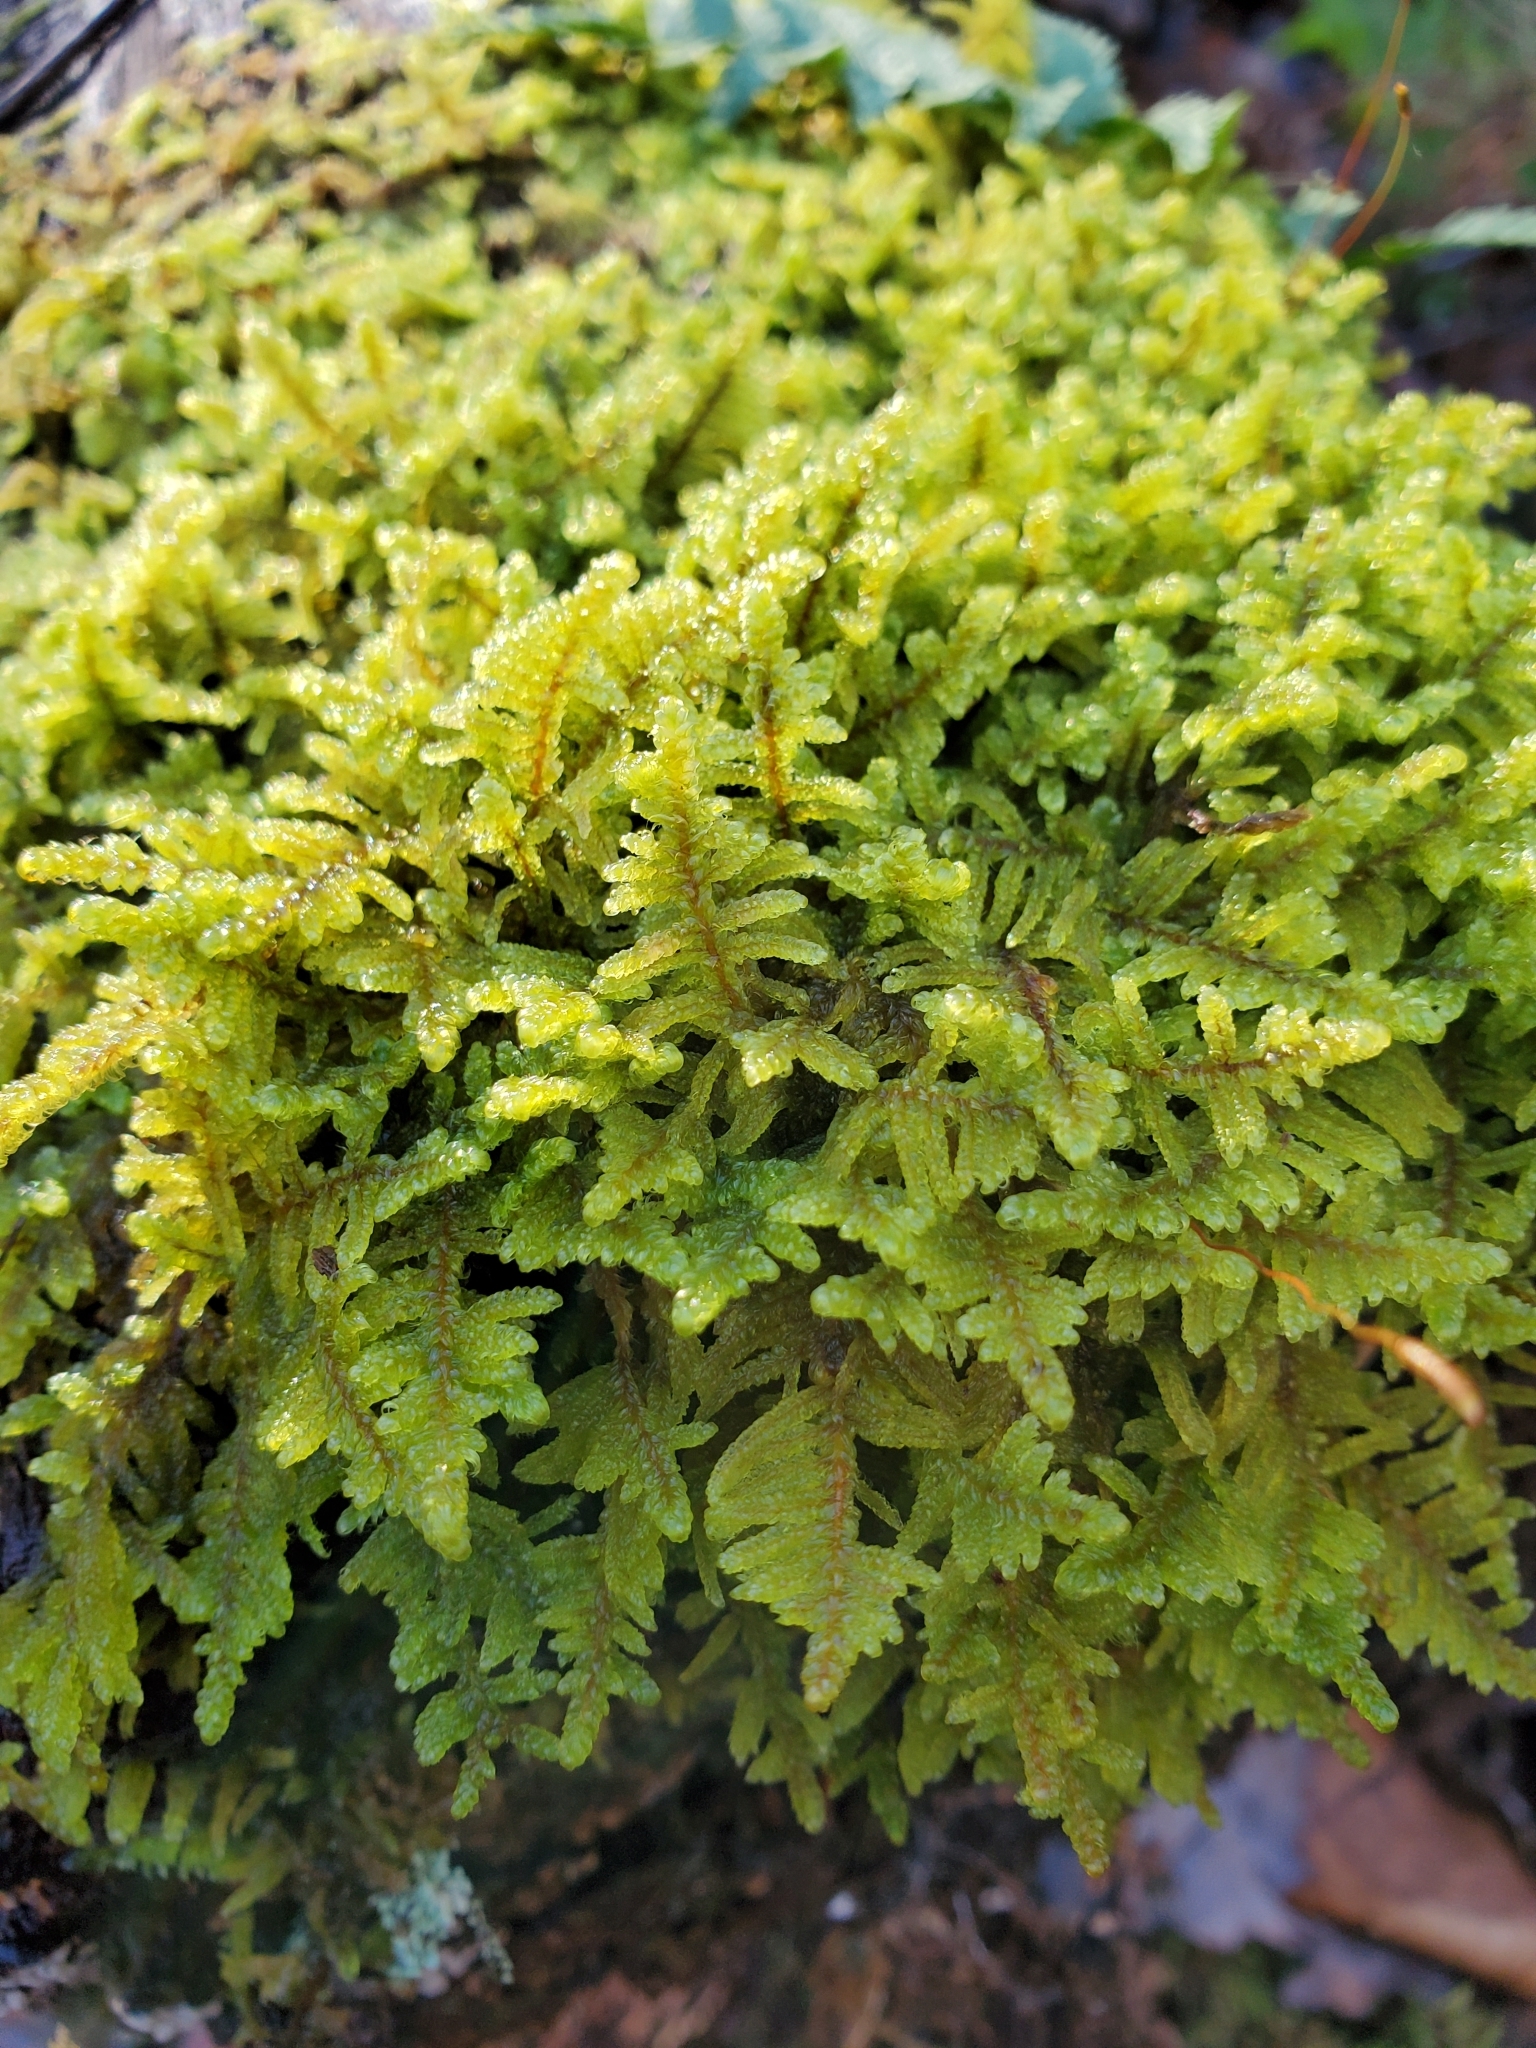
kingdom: Plantae
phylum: Bryophyta
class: Bryopsida
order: Hypnales
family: Callicladiaceae
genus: Callicladium
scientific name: Callicladium imponens
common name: Brocade moss
